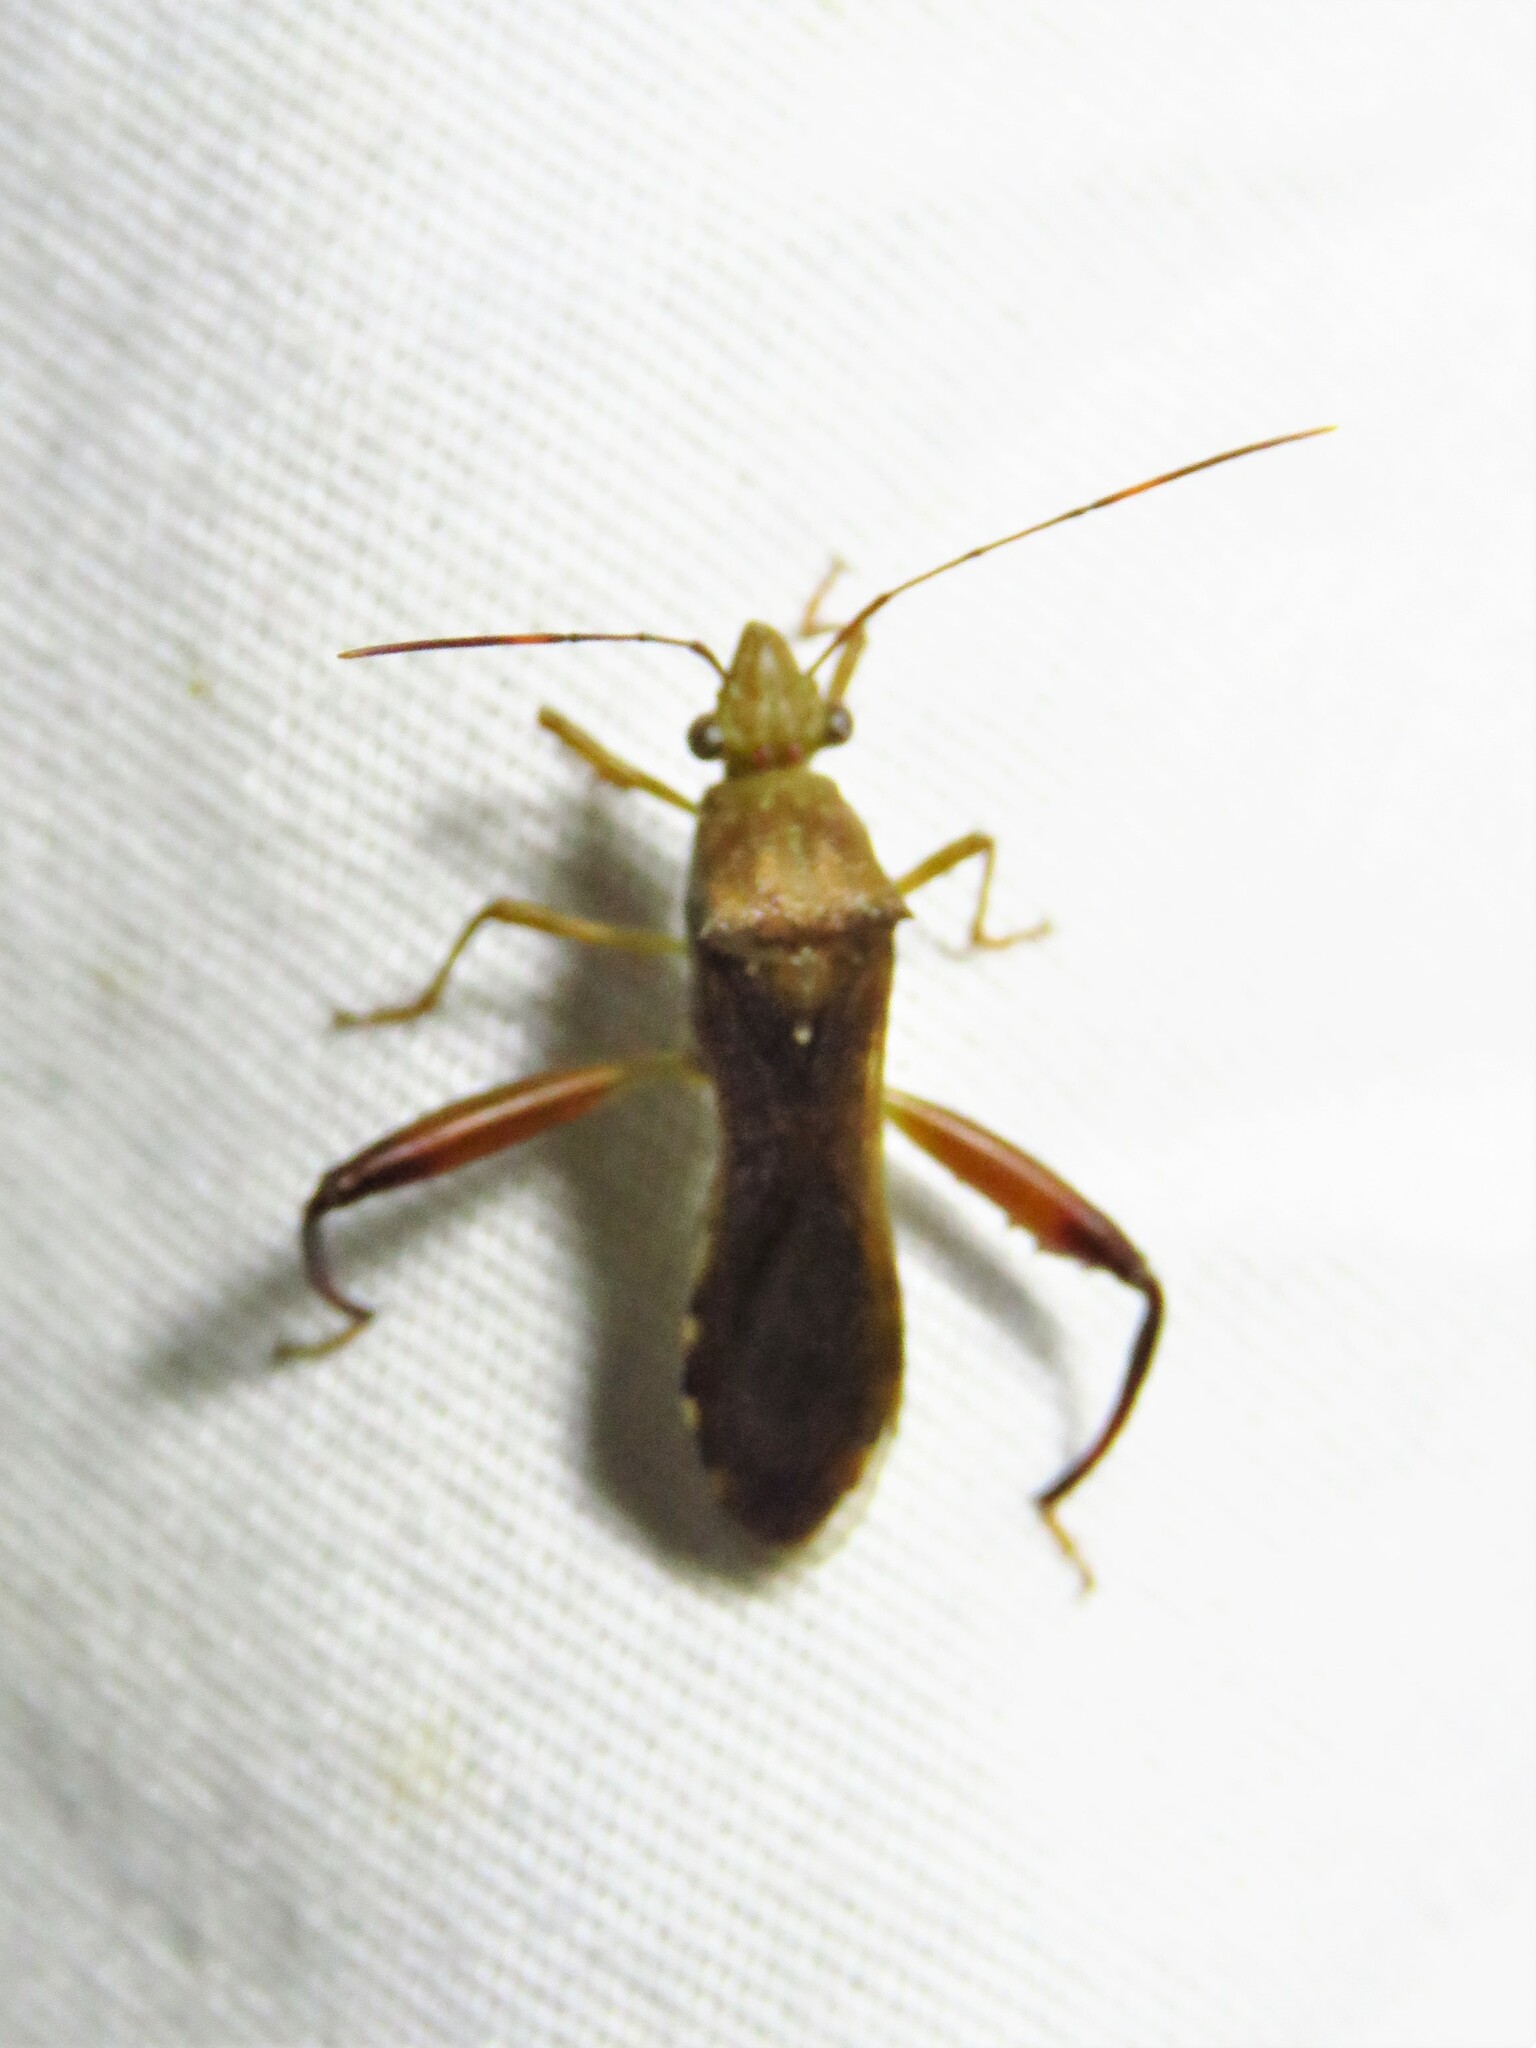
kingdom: Animalia
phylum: Arthropoda
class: Insecta
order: Hemiptera
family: Alydidae
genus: Hyalymenus
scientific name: Hyalymenus tarsatus
